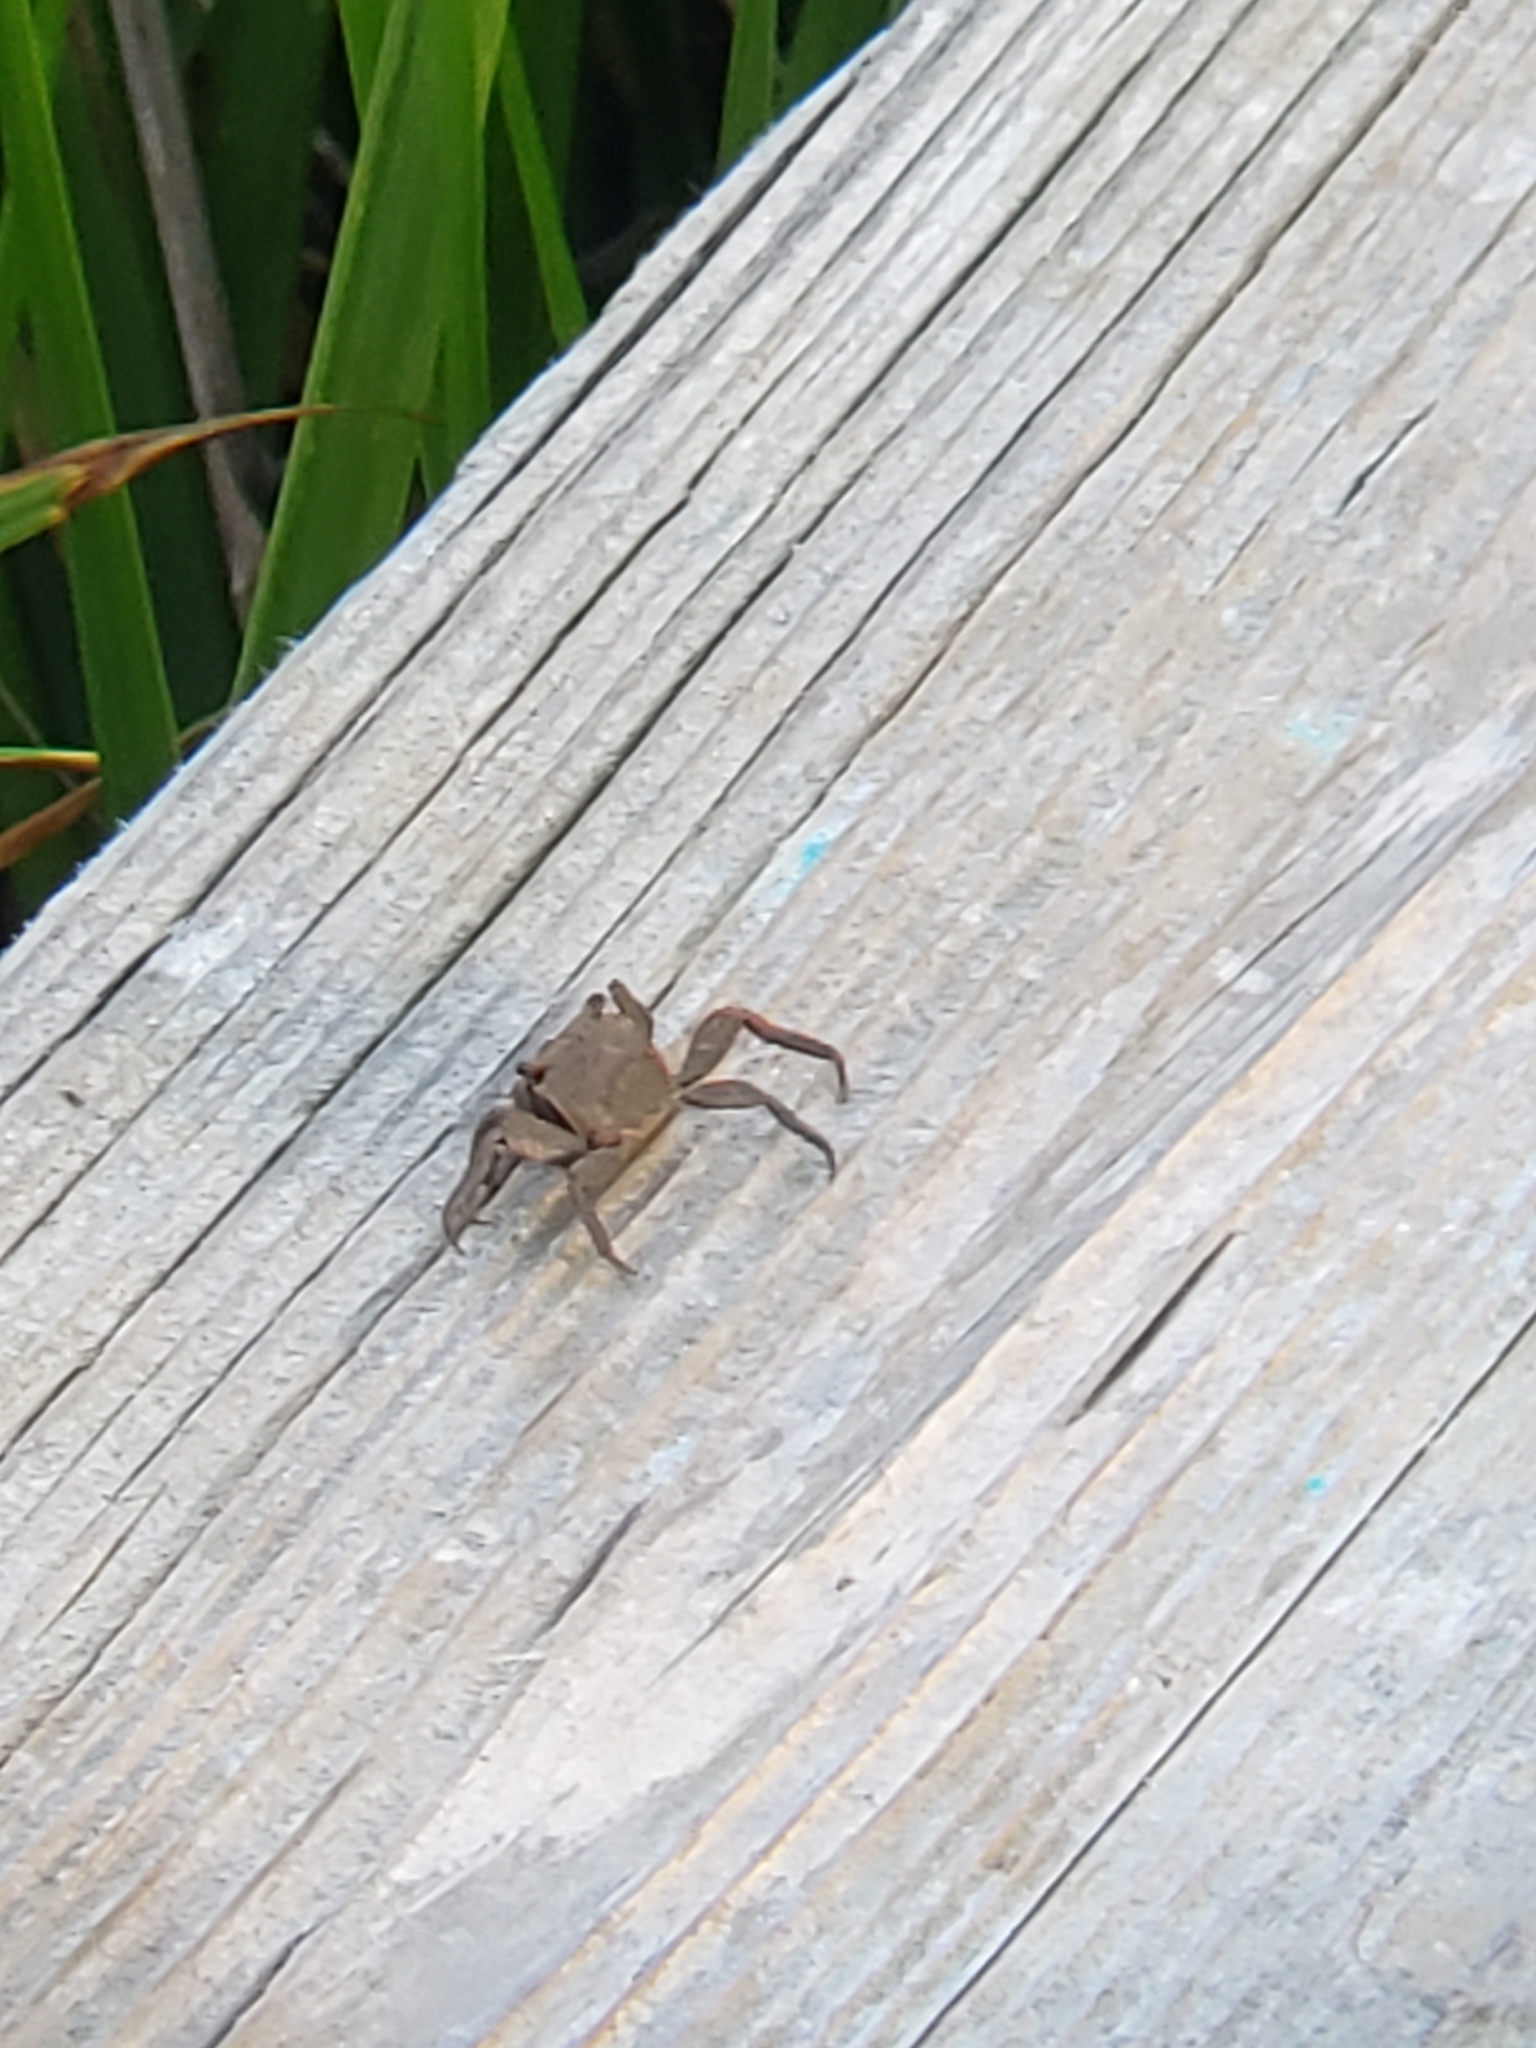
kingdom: Animalia
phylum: Arthropoda
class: Malacostraca
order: Decapoda
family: Sesarmidae
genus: Armases
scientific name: Armases cinereum
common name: Squareback marsh crab
